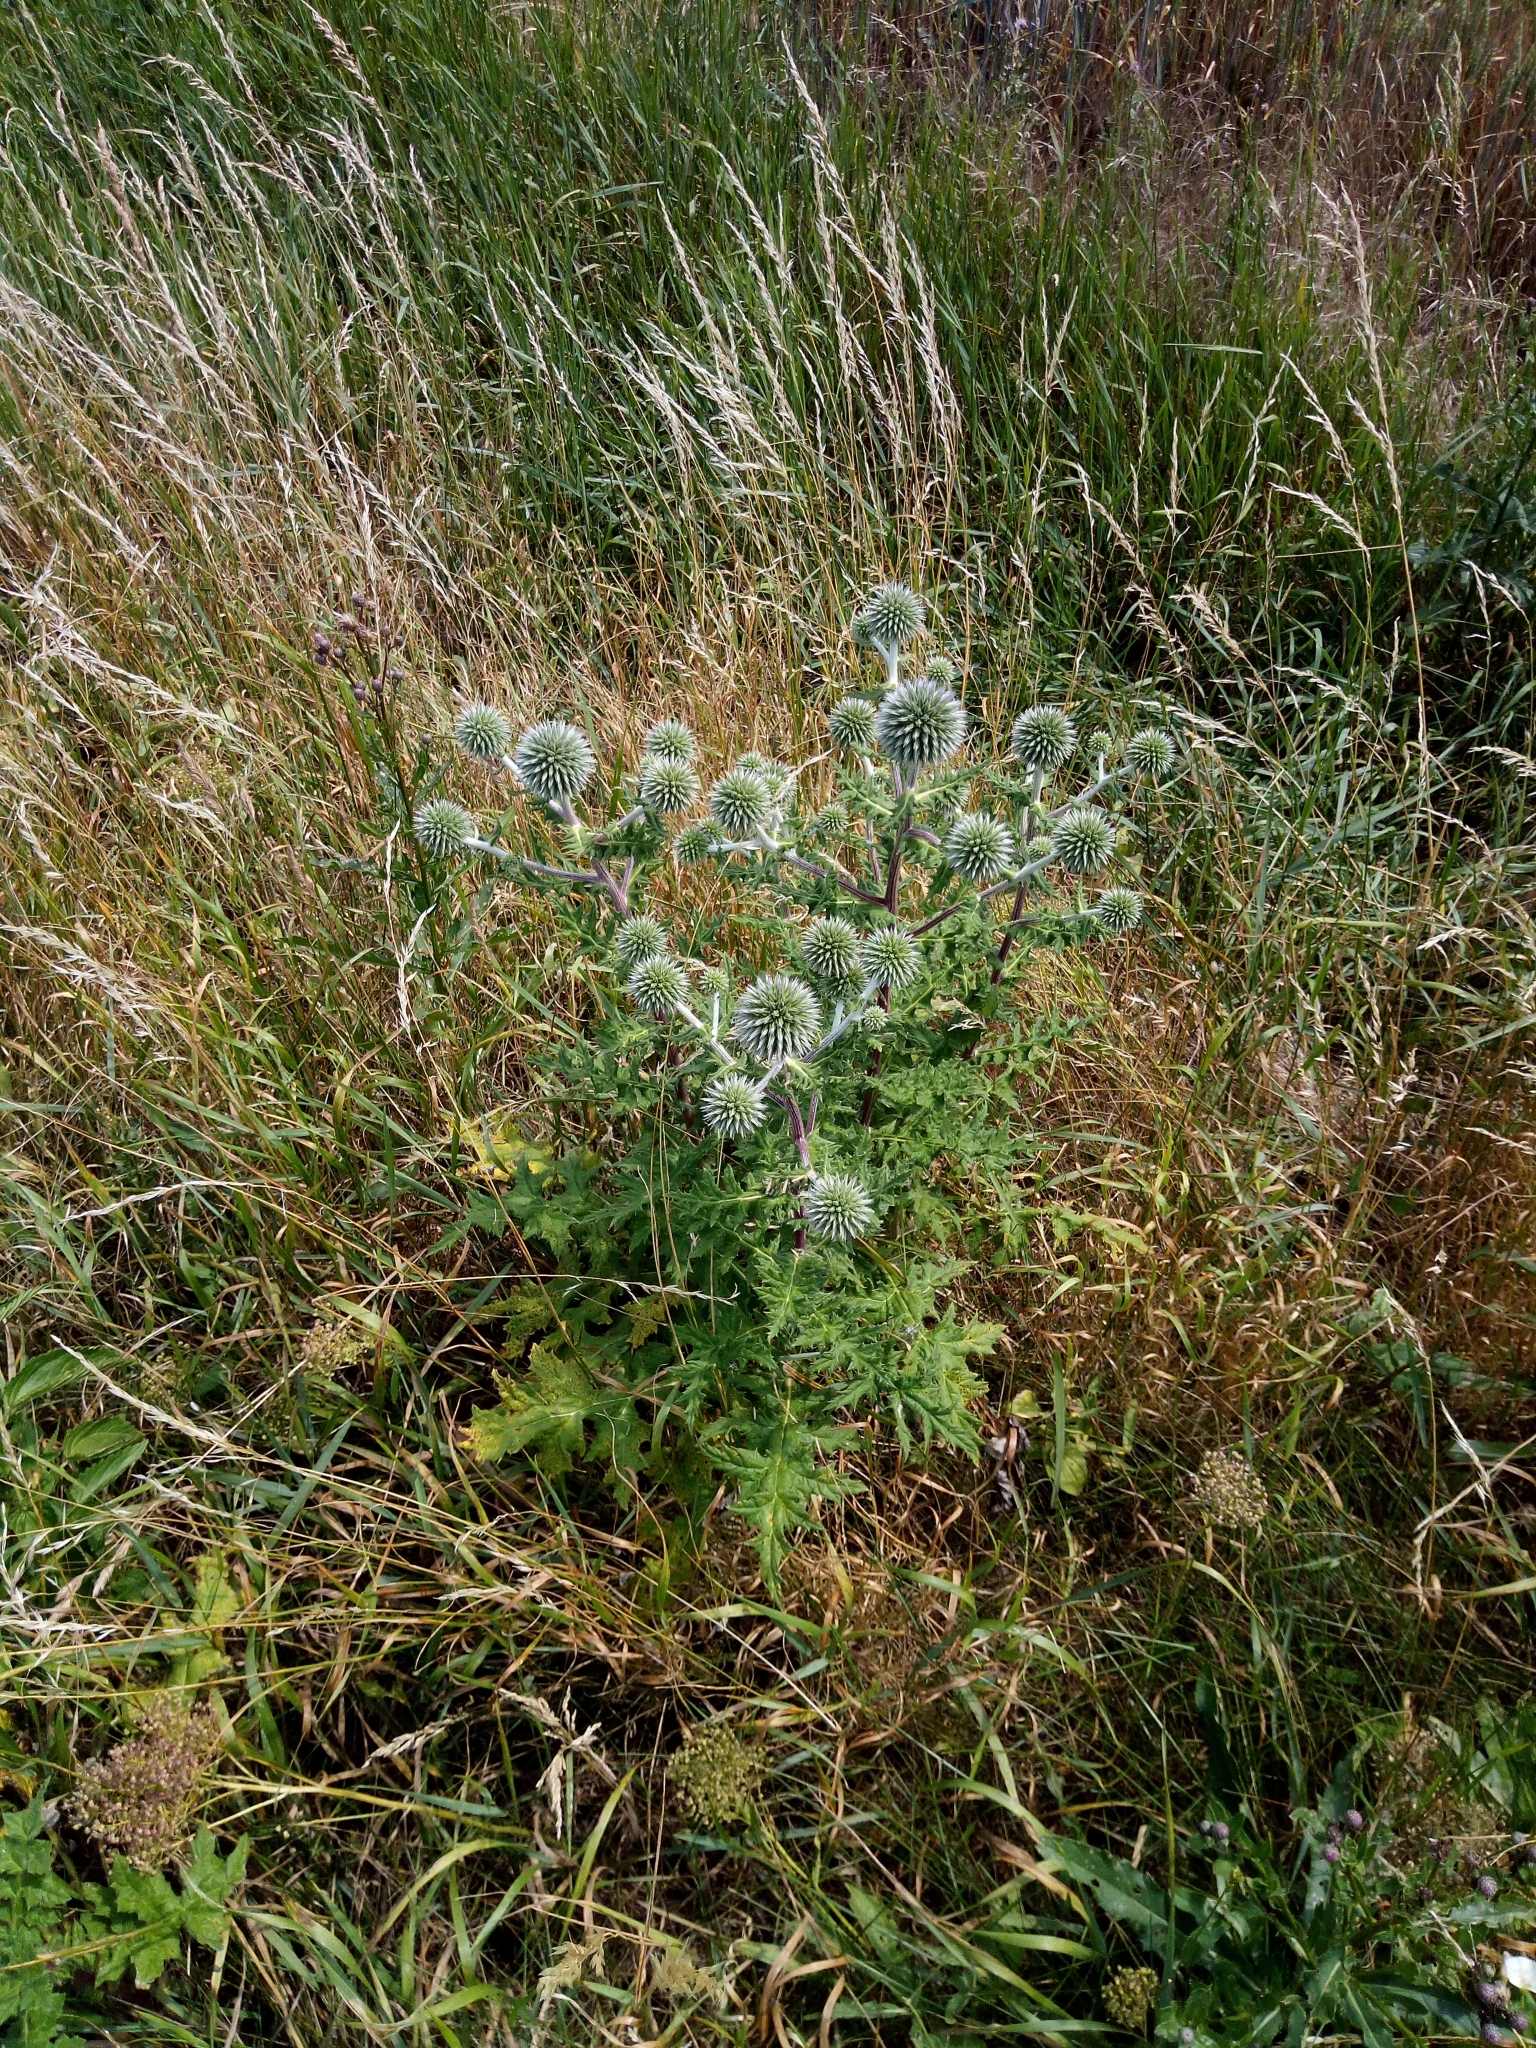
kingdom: Plantae
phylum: Tracheophyta
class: Magnoliopsida
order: Asterales
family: Asteraceae
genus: Echinops
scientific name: Echinops sphaerocephalus
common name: Glandular globe-thistle
